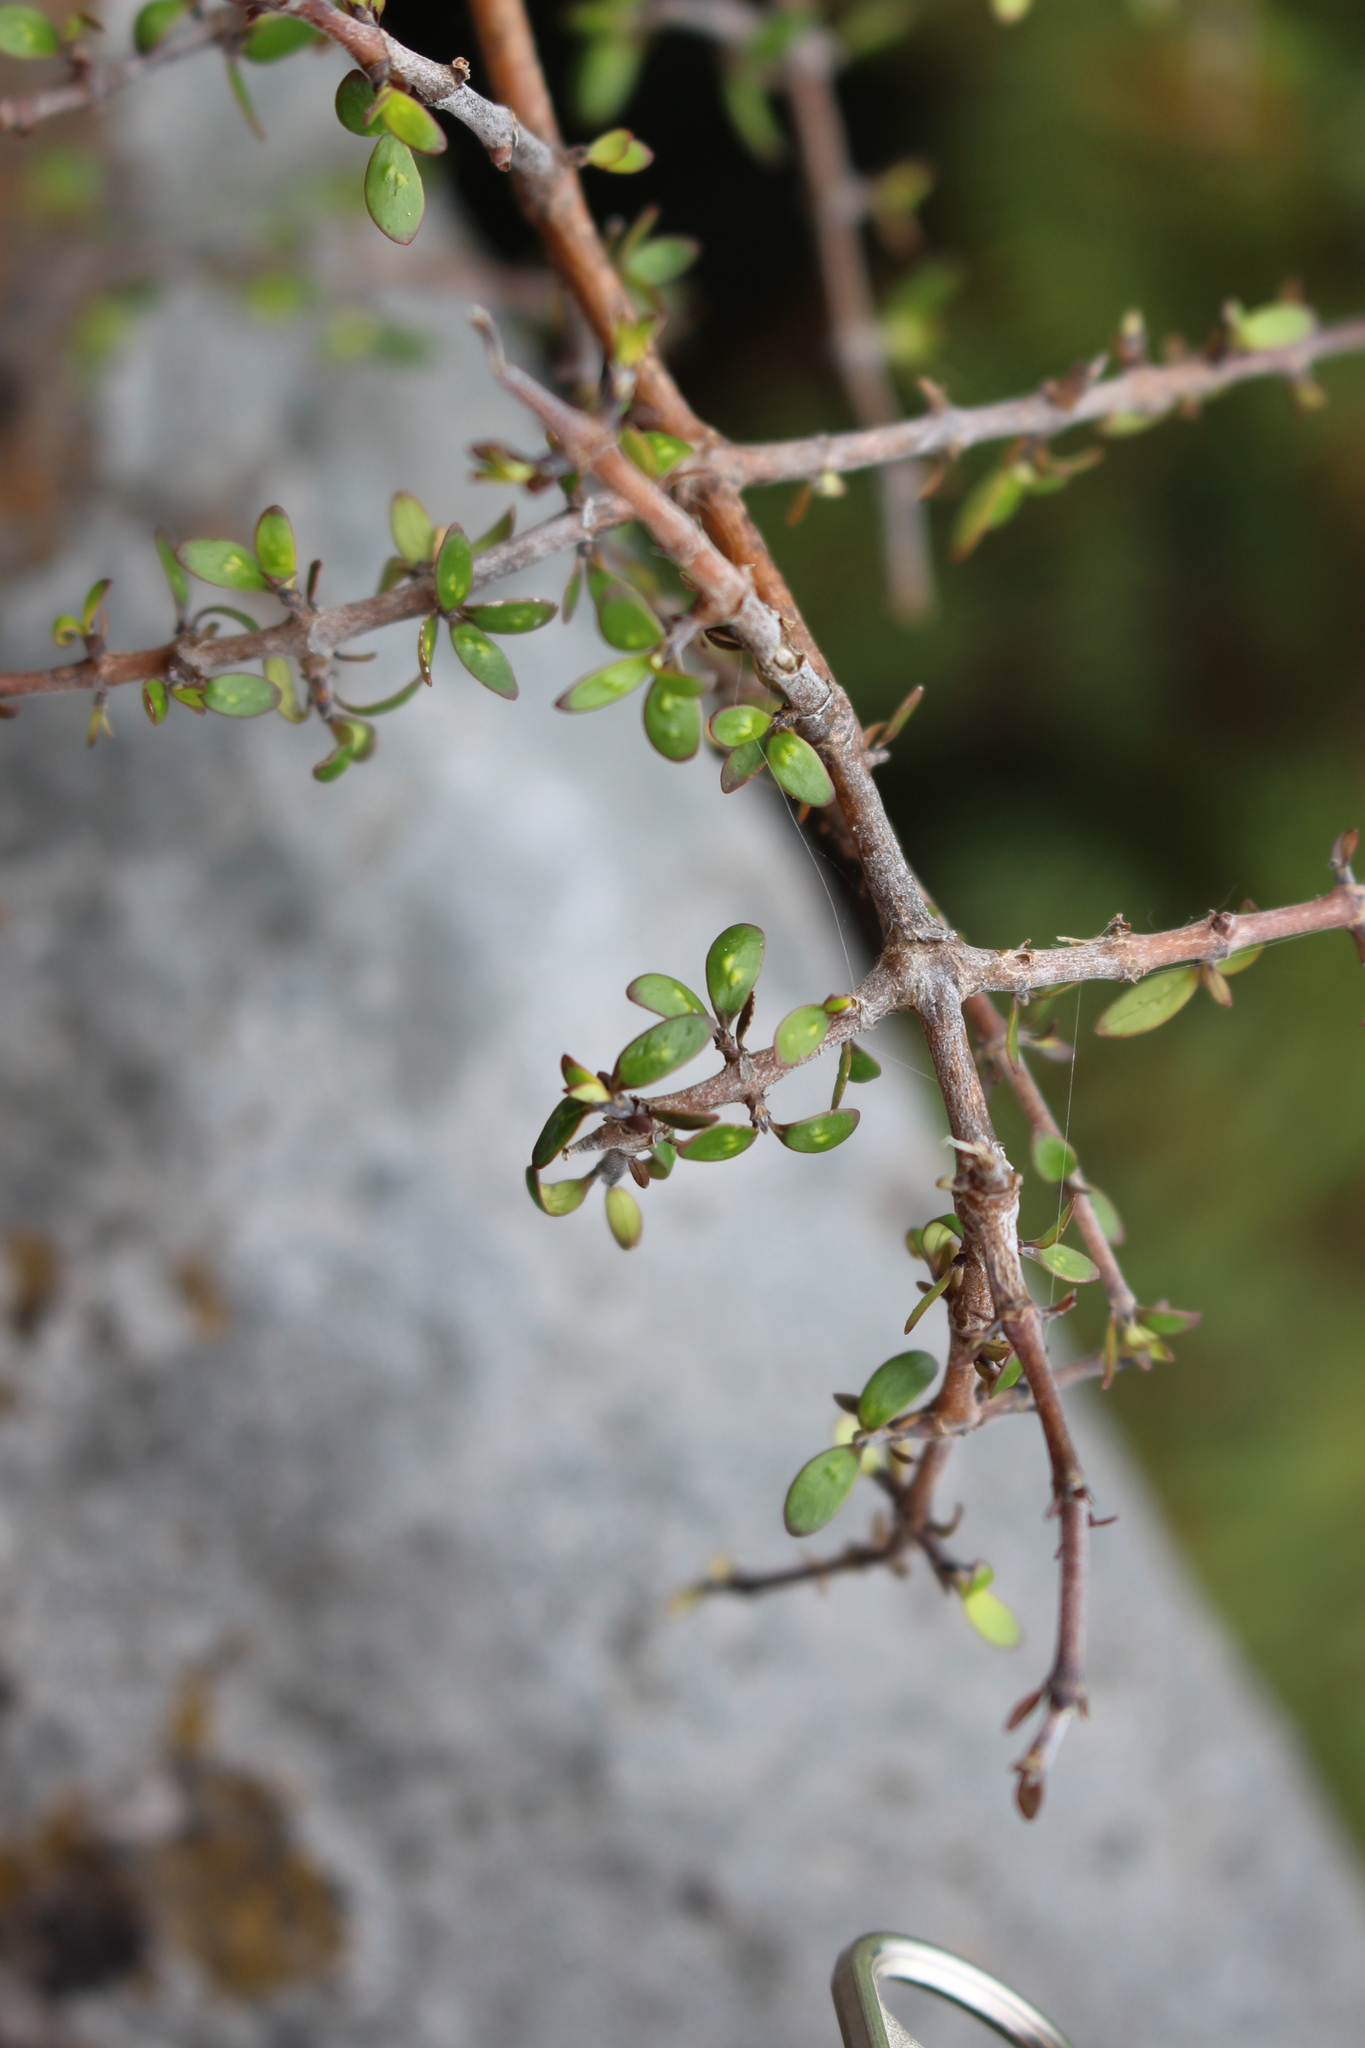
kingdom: Plantae
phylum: Tracheophyta
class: Magnoliopsida
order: Gentianales
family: Rubiaceae
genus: Coprosma
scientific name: Coprosma propinqua
